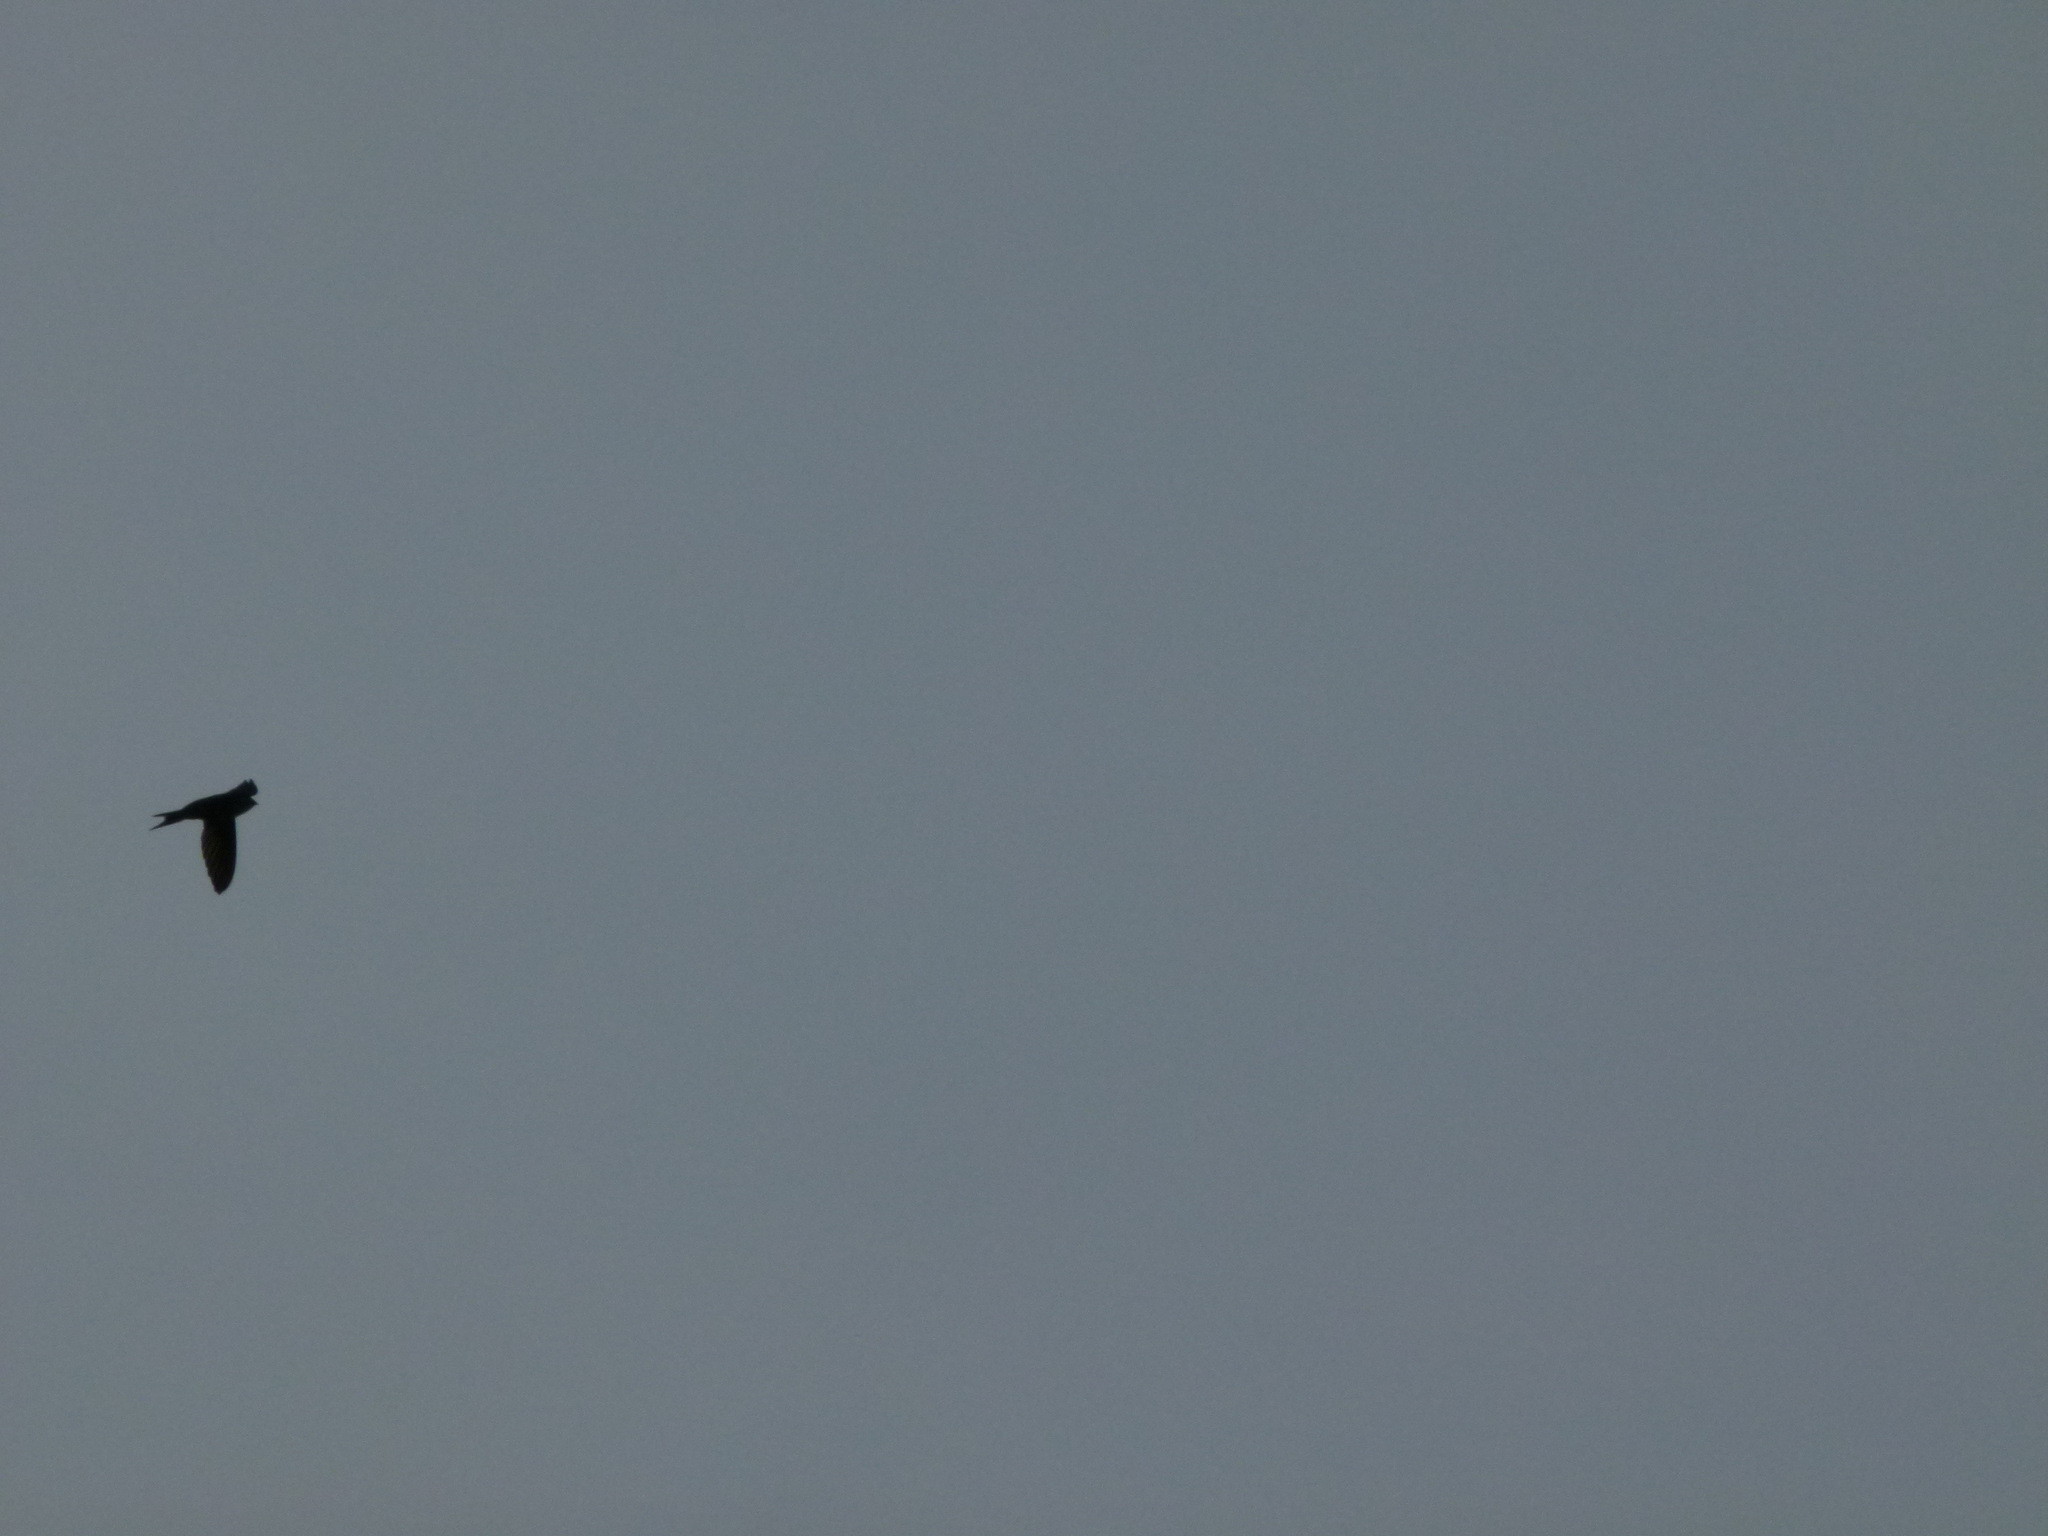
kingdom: Animalia
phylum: Chordata
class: Aves
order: Apodiformes
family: Apodidae
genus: Cypsiurus
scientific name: Cypsiurus balasiensis
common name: Asian palm swift
